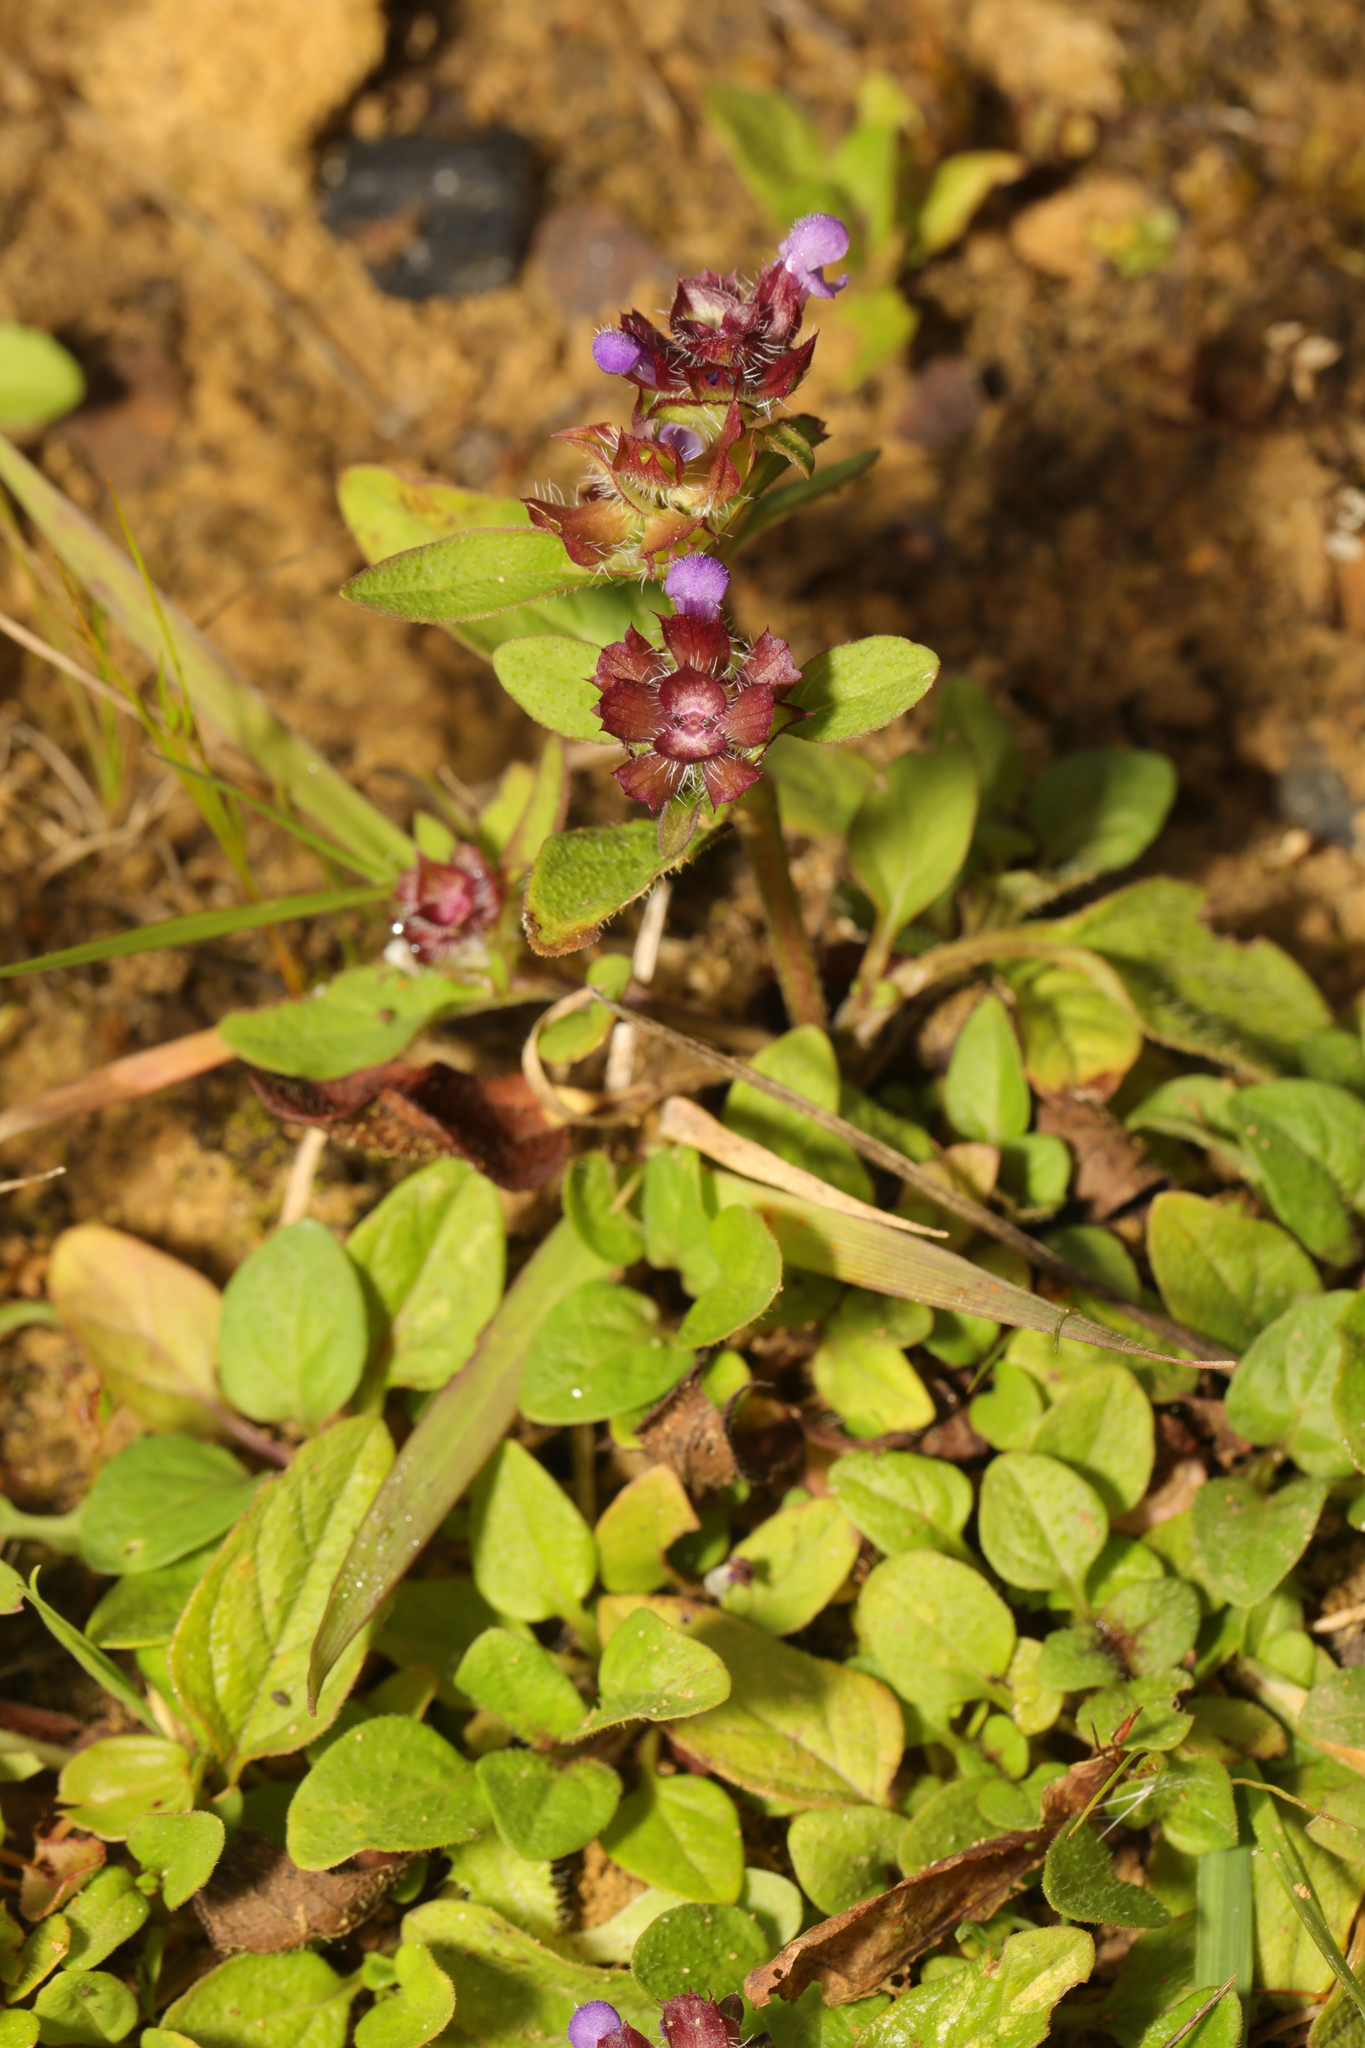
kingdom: Plantae
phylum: Tracheophyta
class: Magnoliopsida
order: Lamiales
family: Lamiaceae
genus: Prunella
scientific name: Prunella vulgaris
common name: Heal-all
